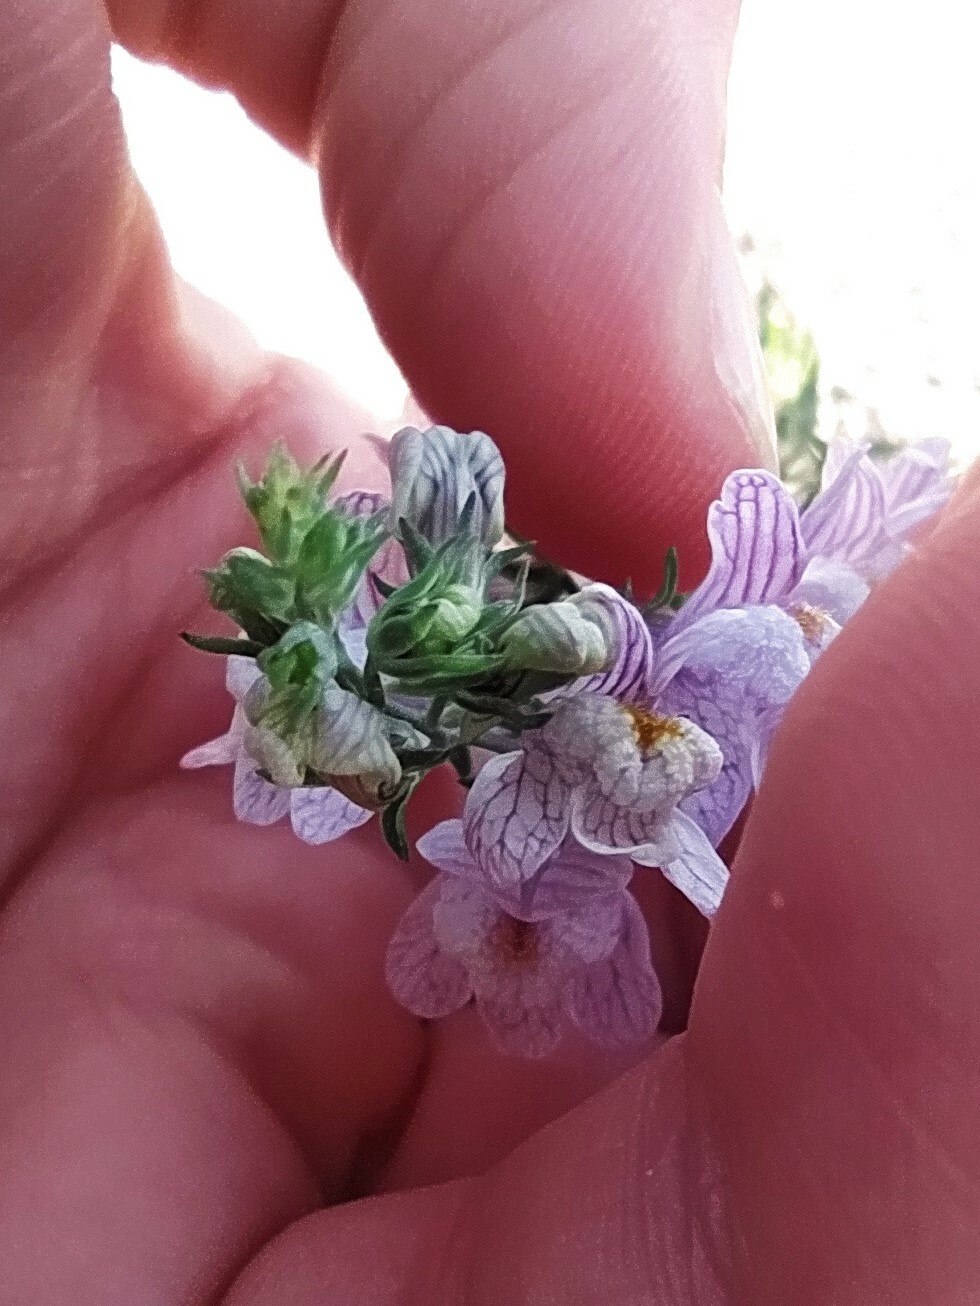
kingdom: Plantae
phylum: Tracheophyta
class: Magnoliopsida
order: Lamiales
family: Plantaginaceae
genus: Linaria
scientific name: Linaria repens
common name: Pale toadflax
